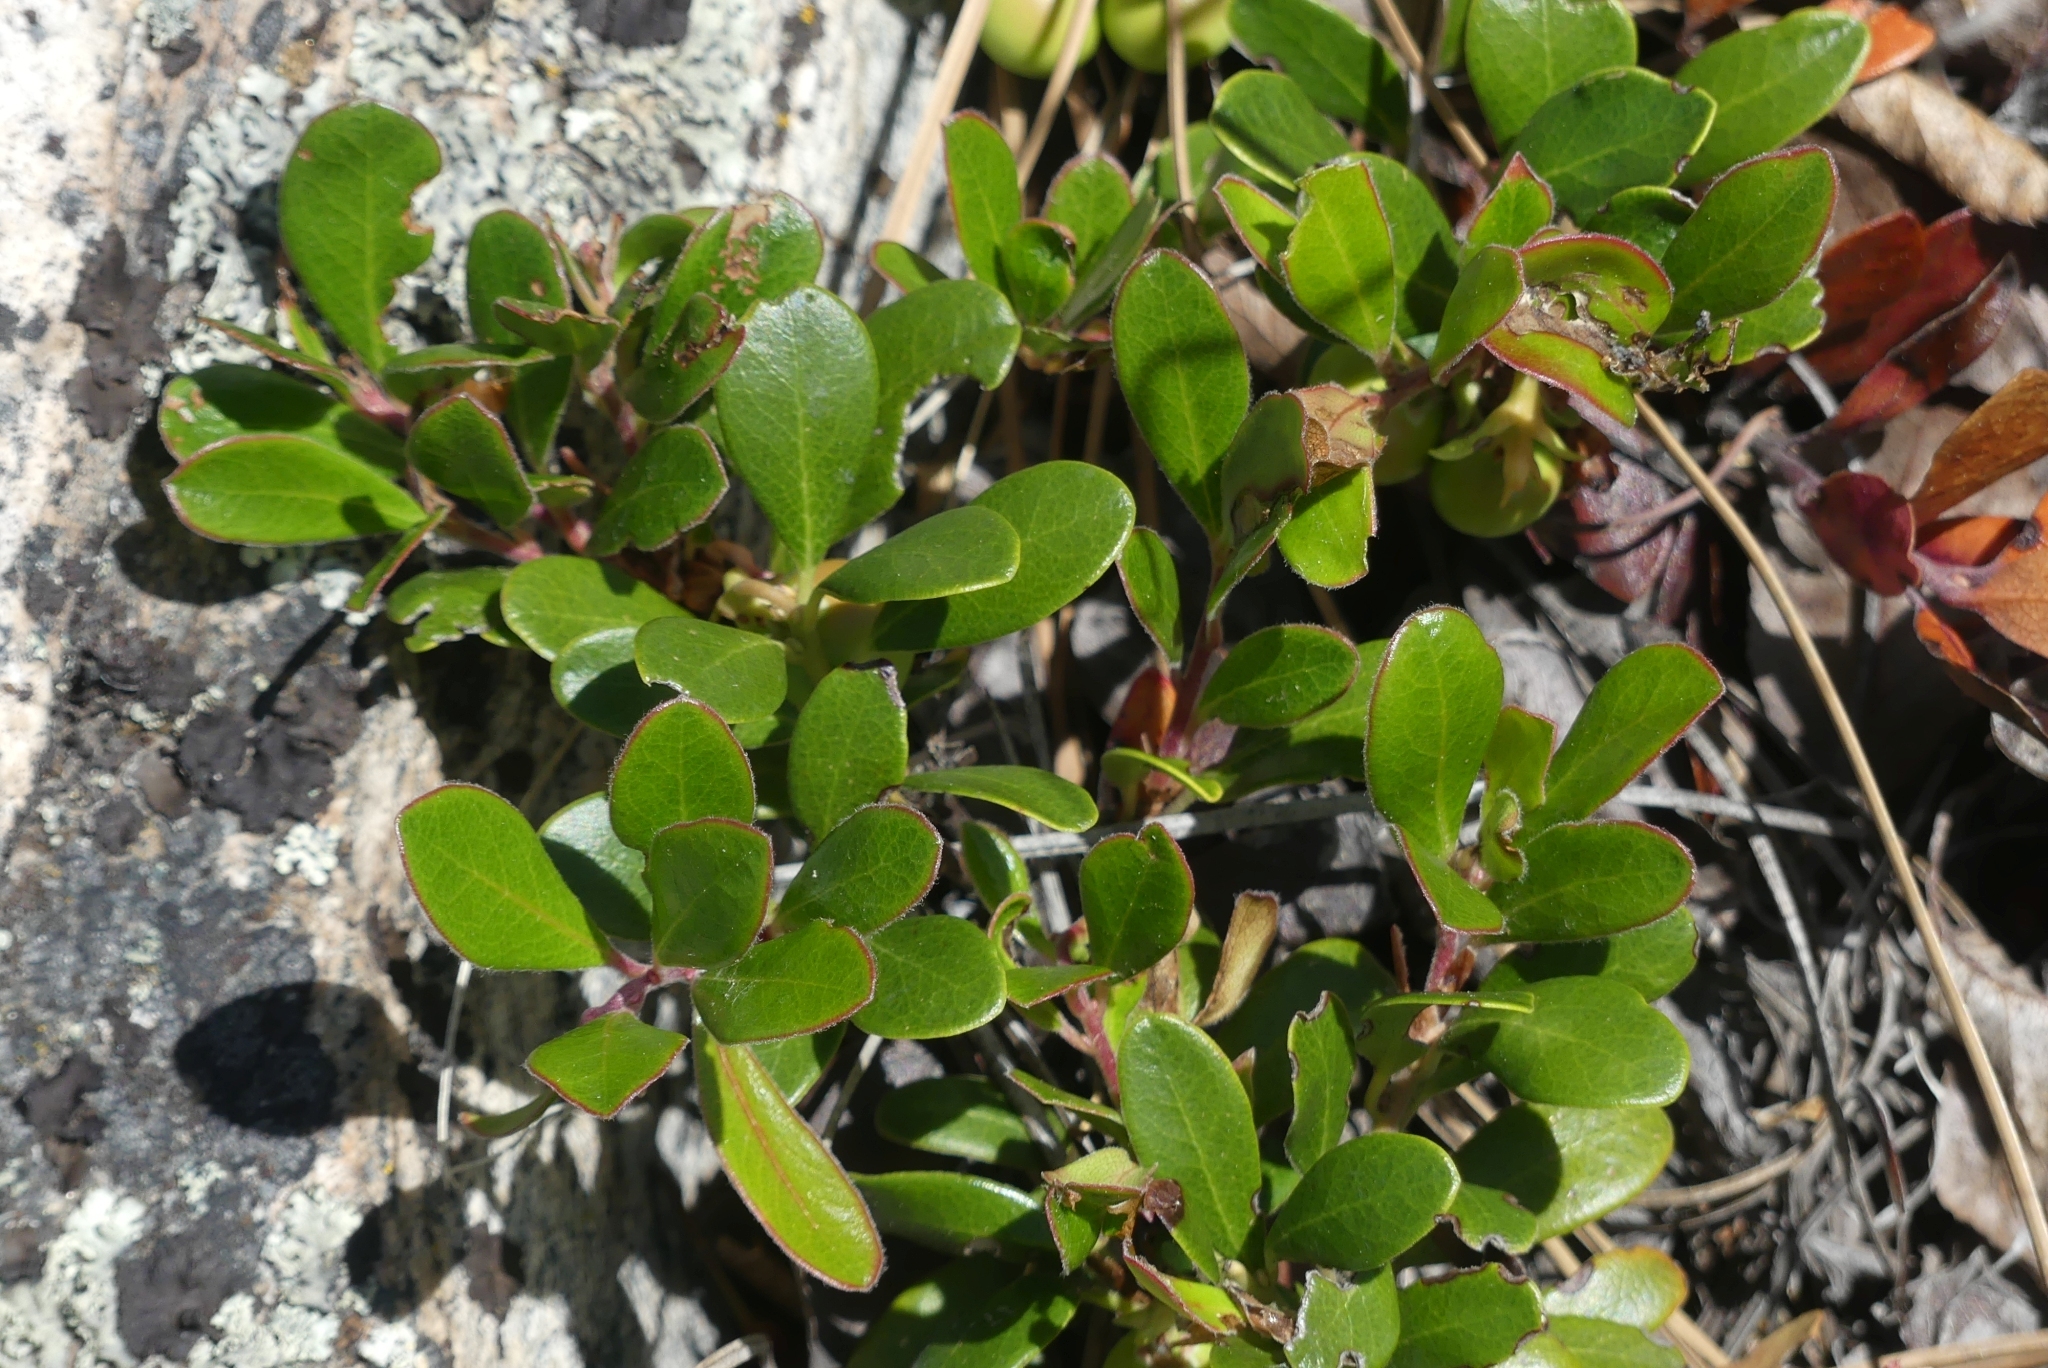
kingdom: Plantae
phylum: Tracheophyta
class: Magnoliopsida
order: Ericales
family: Ericaceae
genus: Arctostaphylos
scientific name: Arctostaphylos uva-ursi
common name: Bearberry
